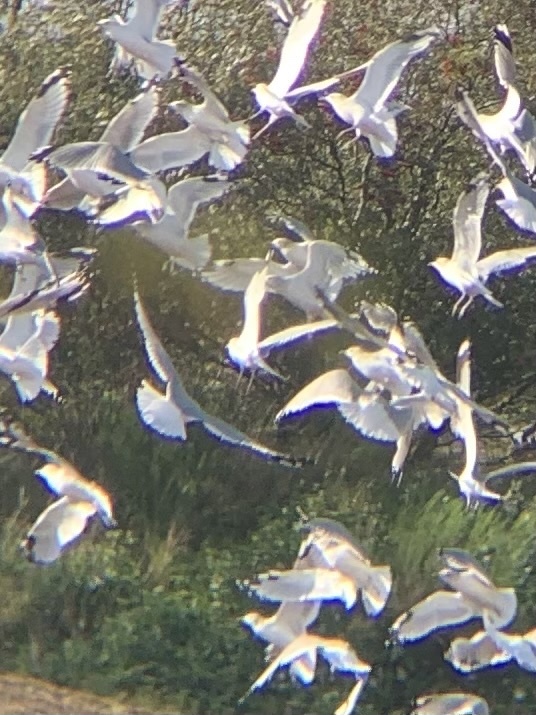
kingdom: Animalia
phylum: Chordata
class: Aves
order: Charadriiformes
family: Laridae
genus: Larus
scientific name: Larus canus
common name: Mew gull
